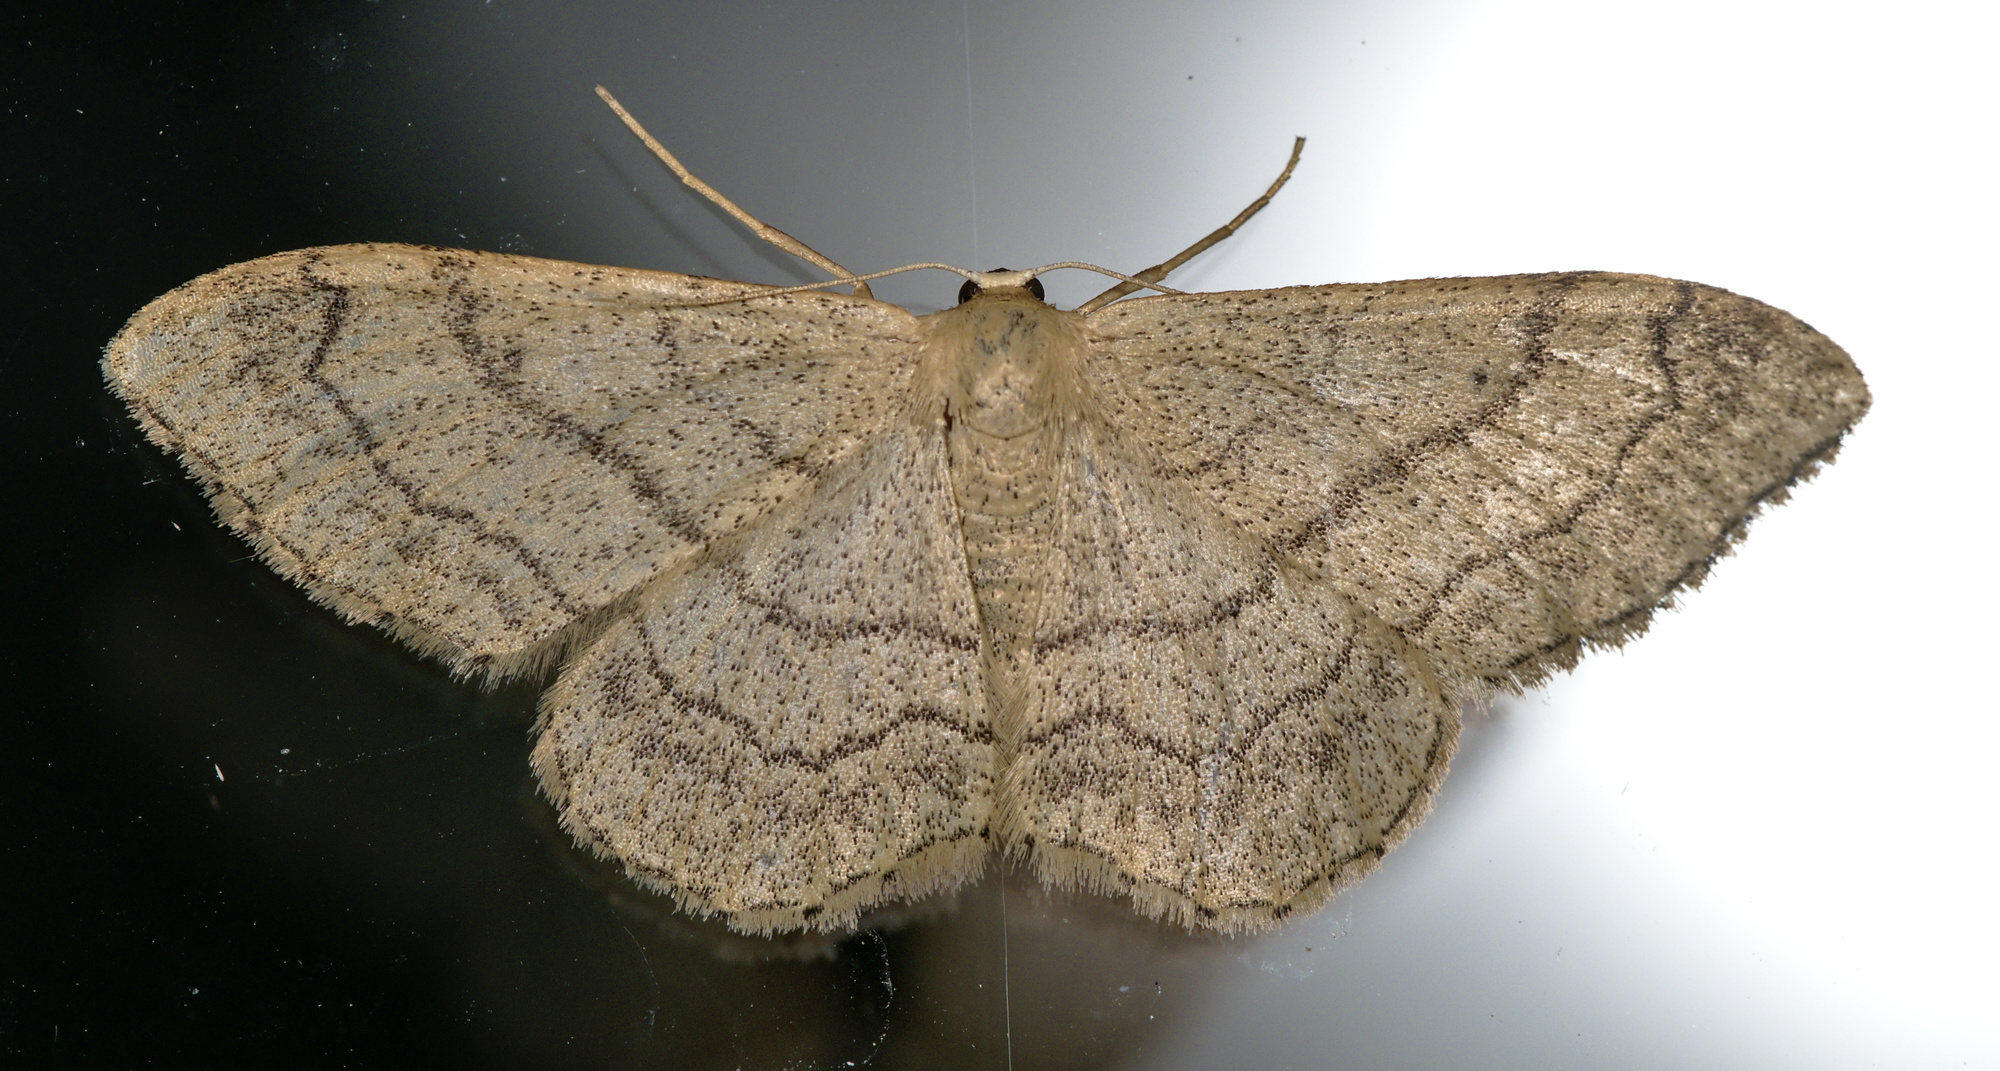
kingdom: Animalia
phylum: Arthropoda
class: Insecta
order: Lepidoptera
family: Geometridae
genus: Idaea
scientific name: Idaea aversata
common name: Riband wave
